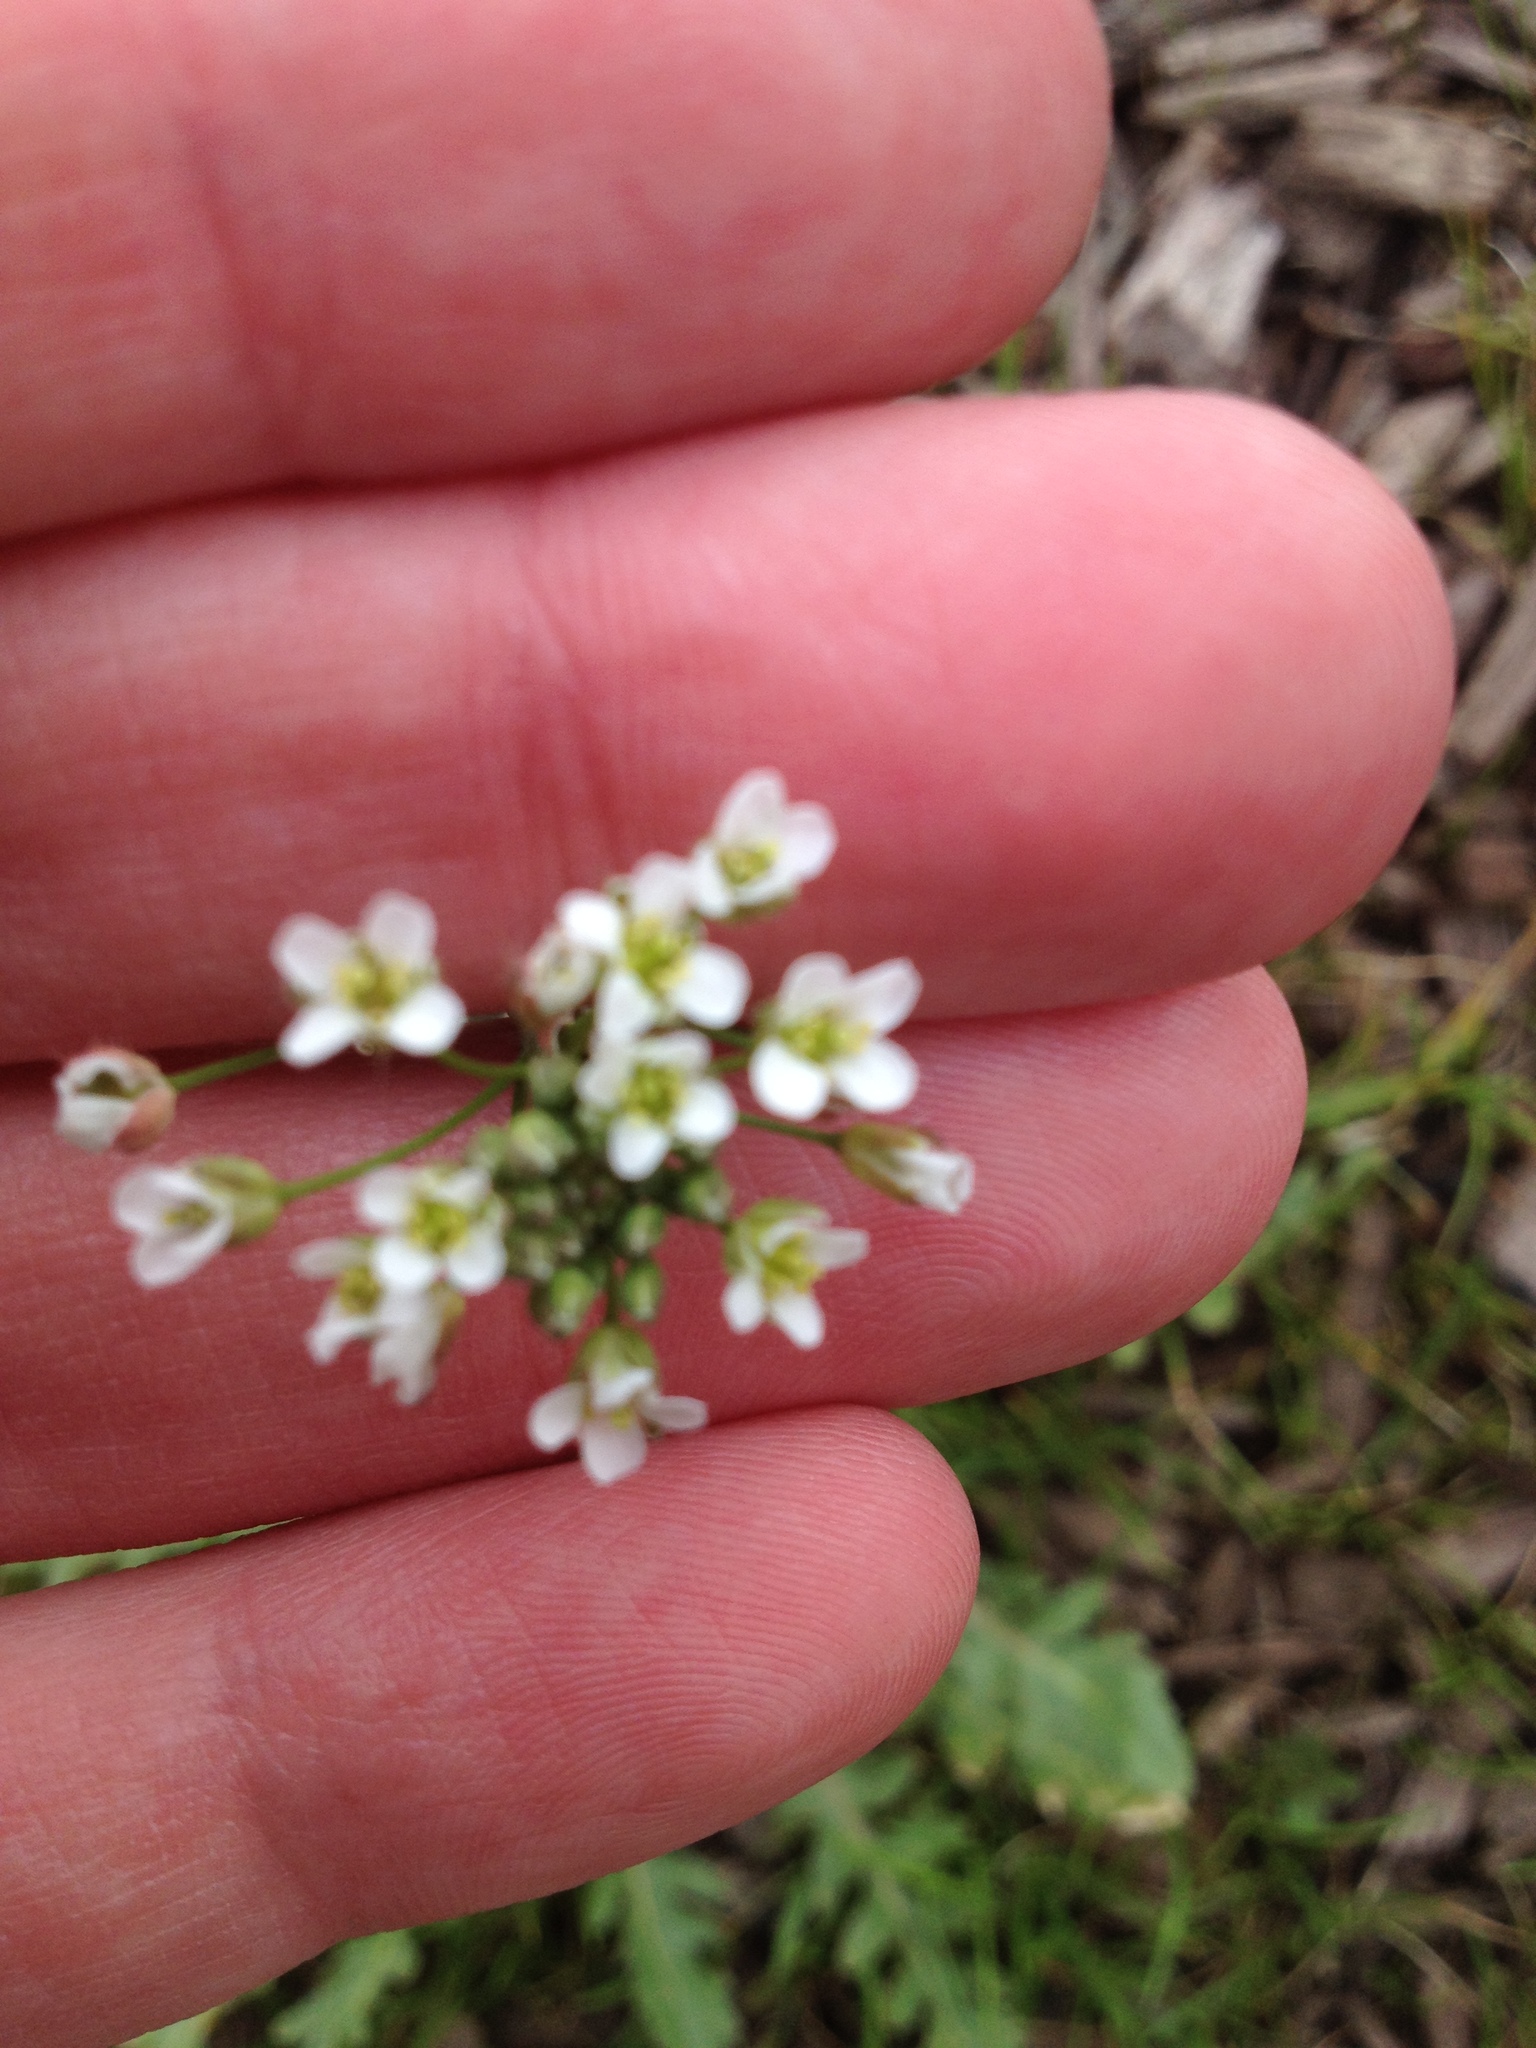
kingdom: Plantae
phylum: Tracheophyta
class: Magnoliopsida
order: Brassicales
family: Brassicaceae
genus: Capsella
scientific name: Capsella bursa-pastoris
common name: Shepherd's purse
